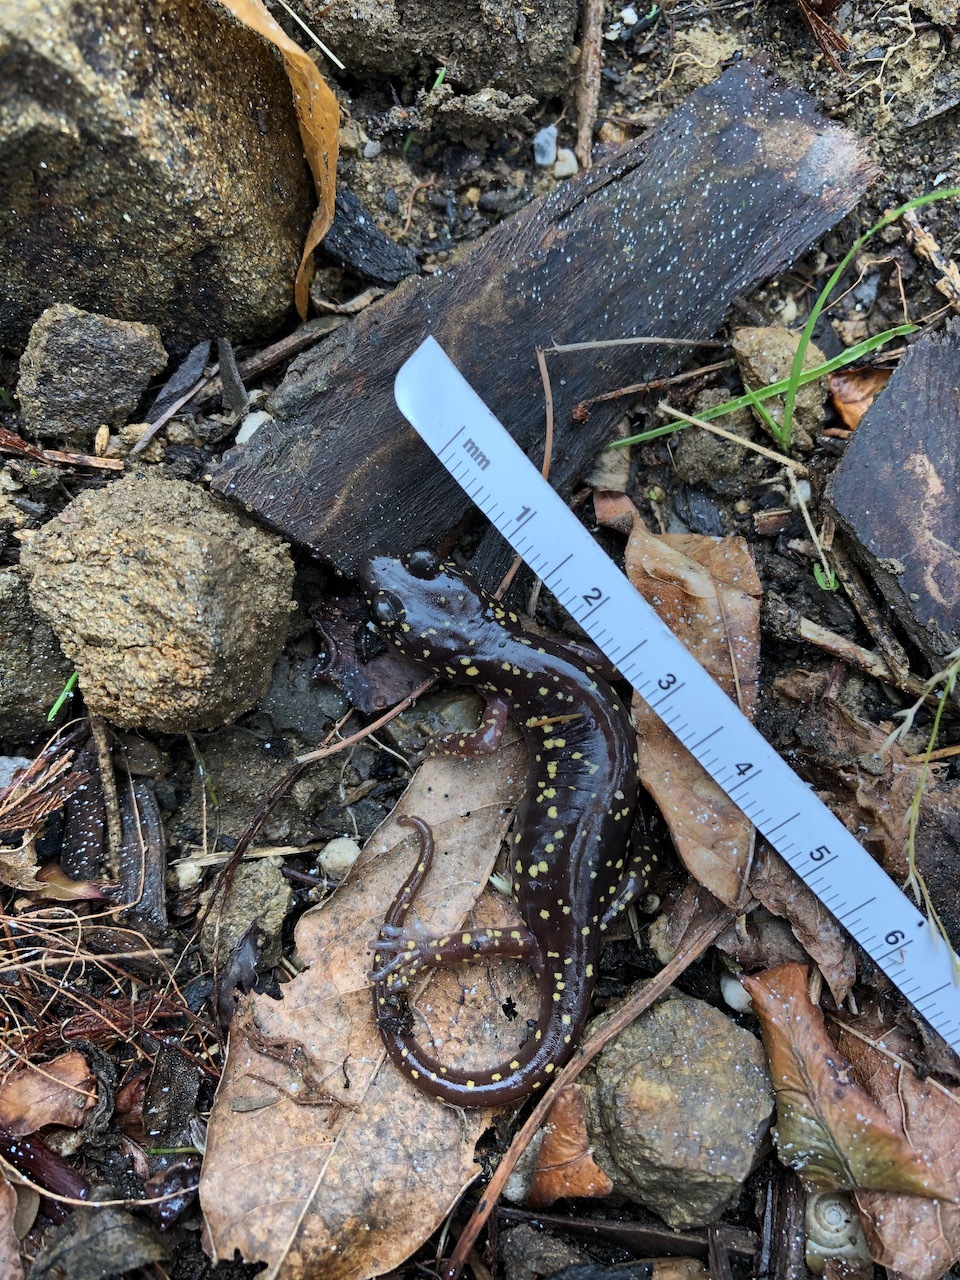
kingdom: Animalia
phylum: Chordata
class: Amphibia
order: Caudata
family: Plethodontidae
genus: Aneides
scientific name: Aneides lugubris
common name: Arboreal salamander
